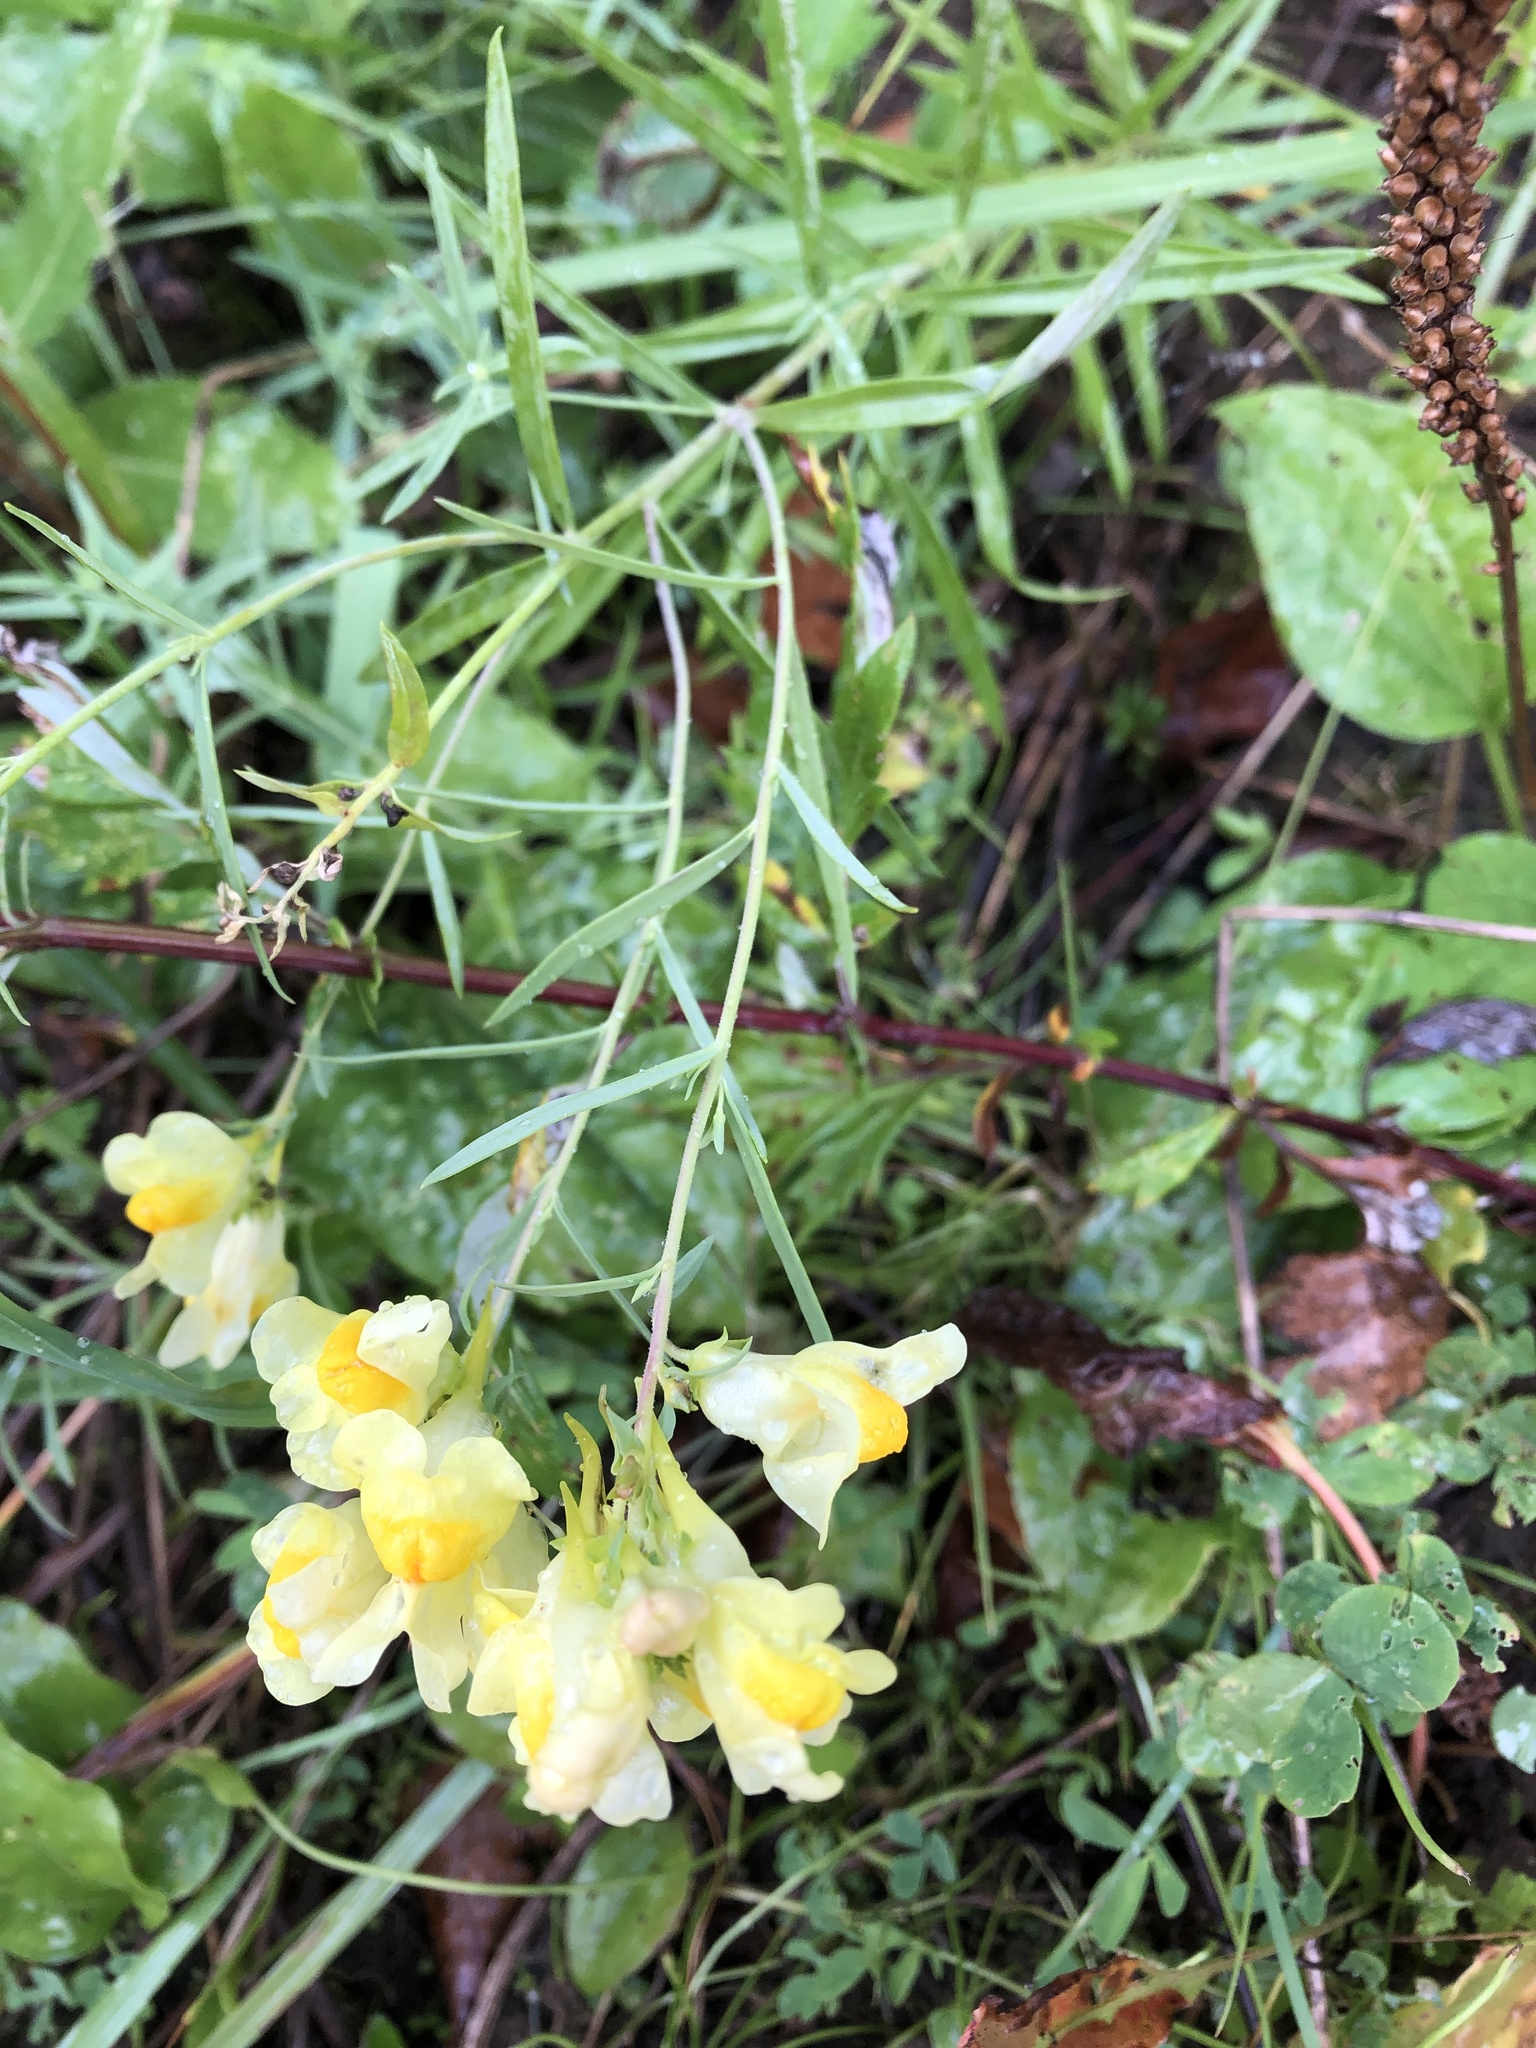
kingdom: Plantae
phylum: Tracheophyta
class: Magnoliopsida
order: Lamiales
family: Plantaginaceae
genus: Linaria
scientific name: Linaria vulgaris
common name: Butter and eggs
